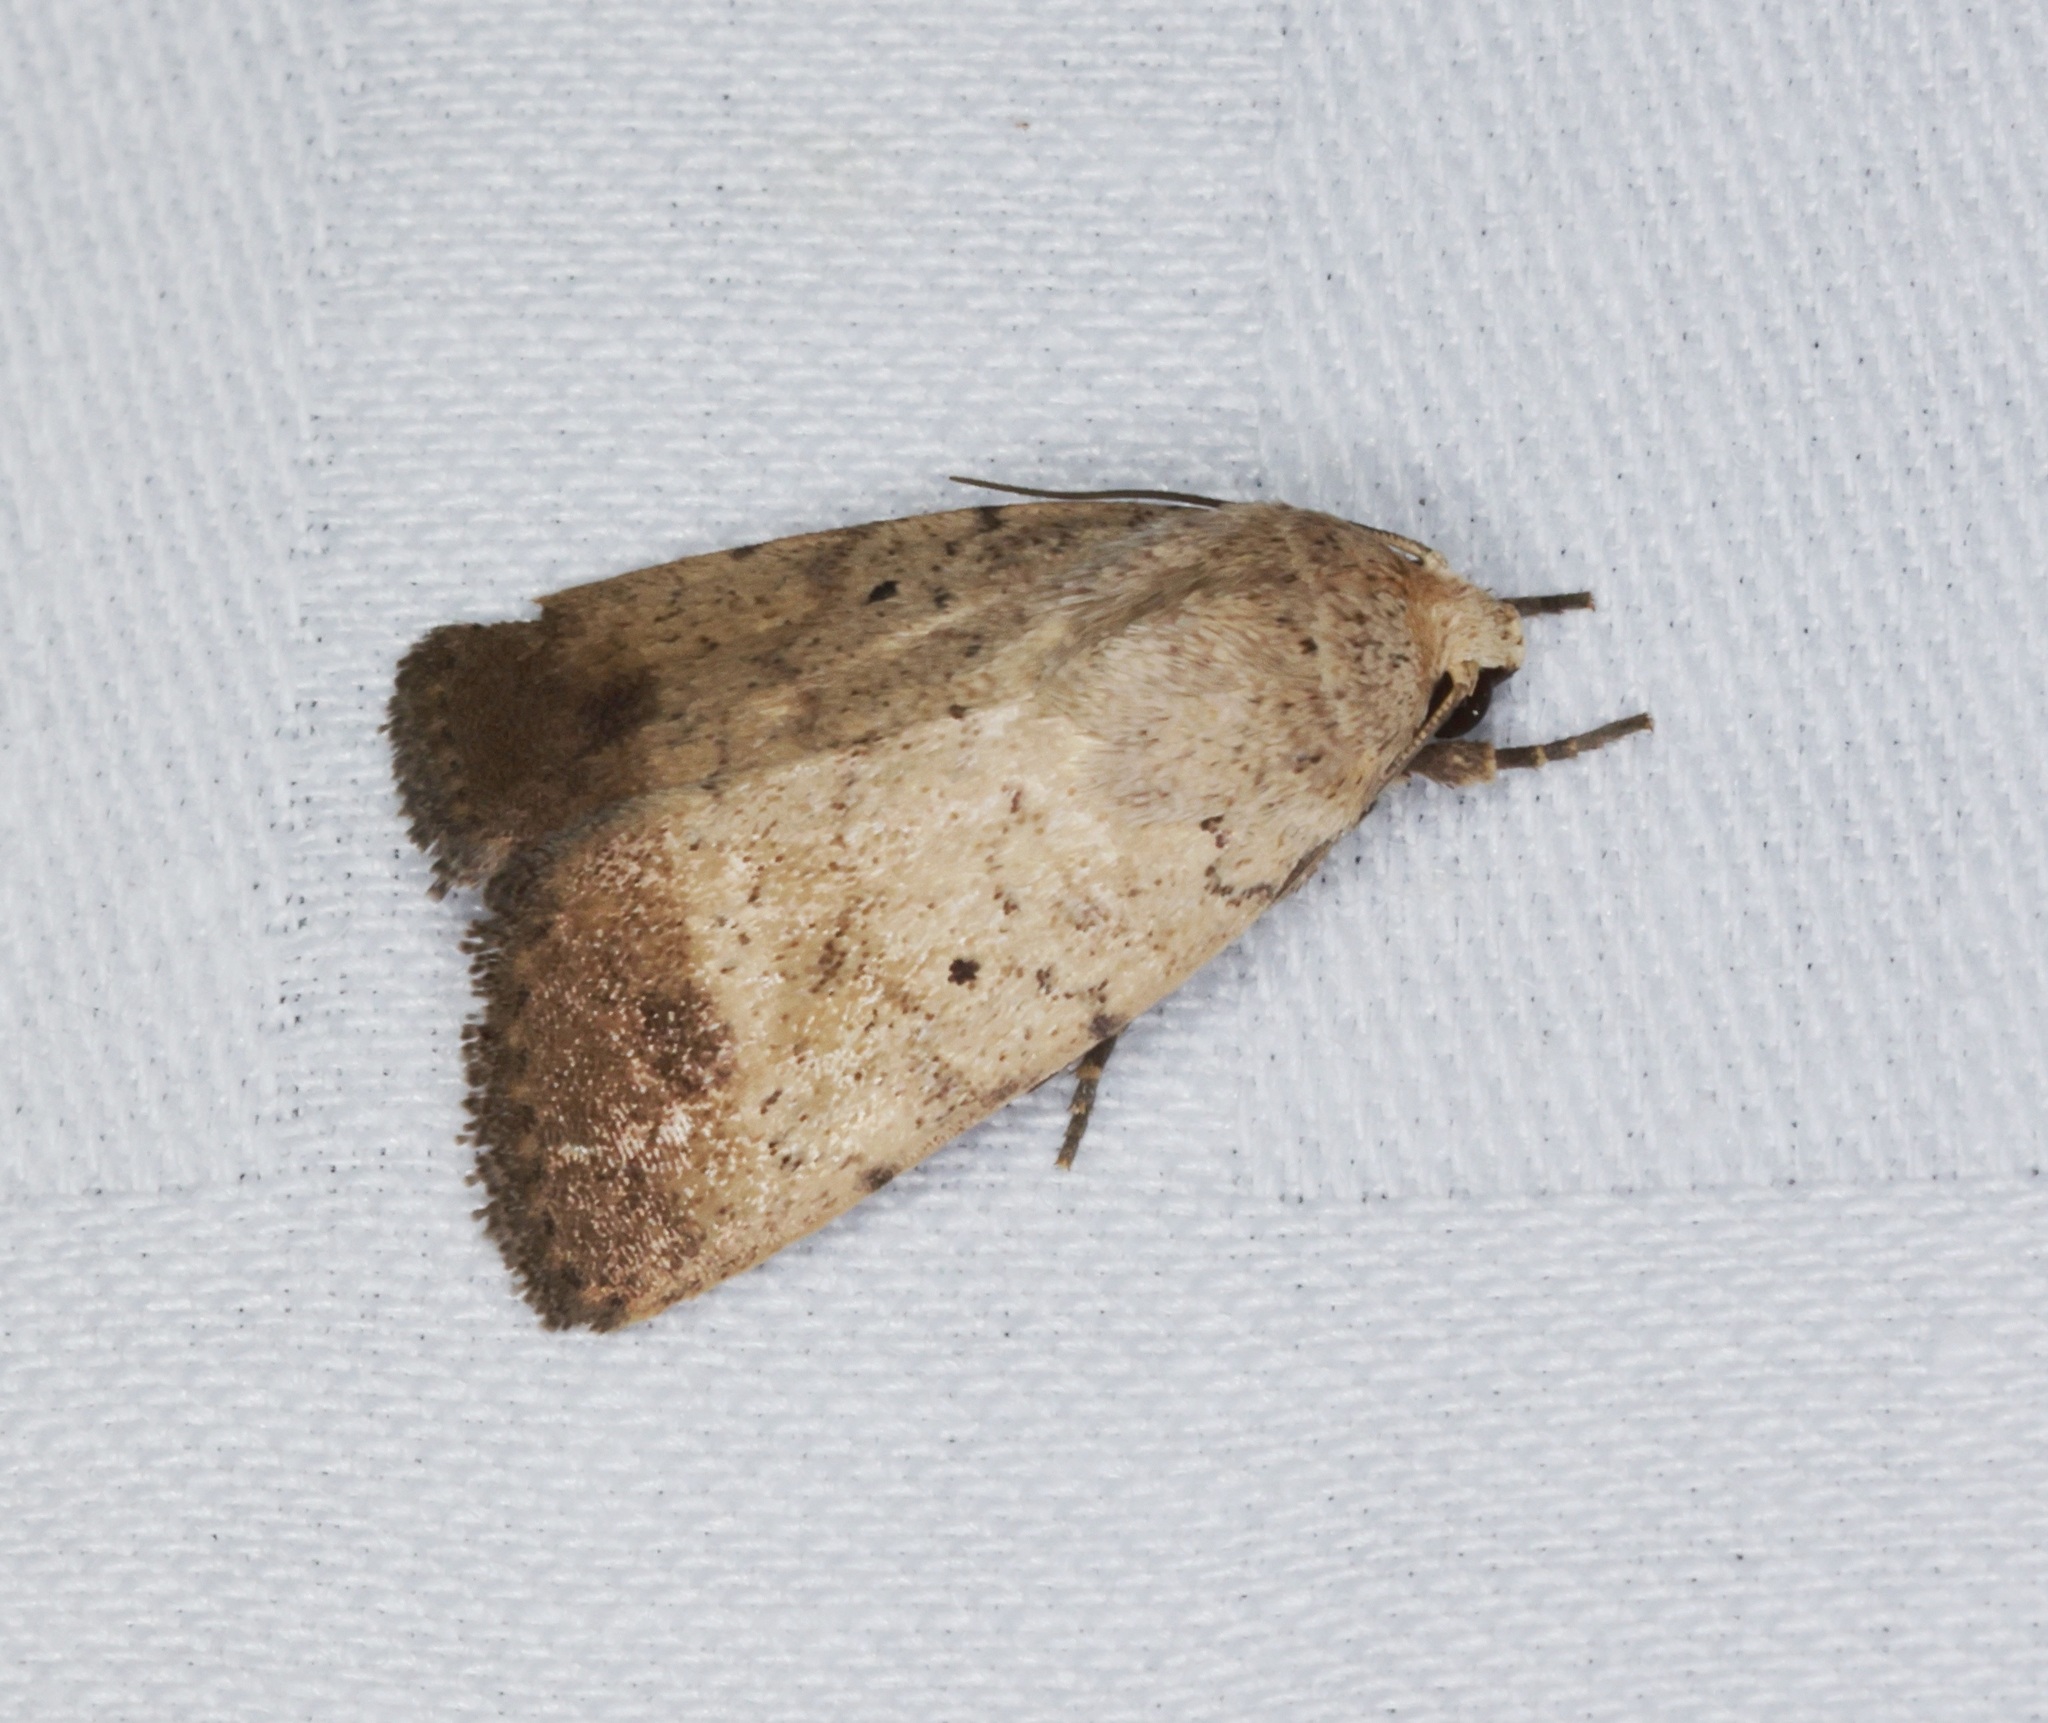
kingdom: Animalia
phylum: Arthropoda
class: Insecta
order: Lepidoptera
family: Noctuidae
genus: Athetis
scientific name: Athetis terminata
